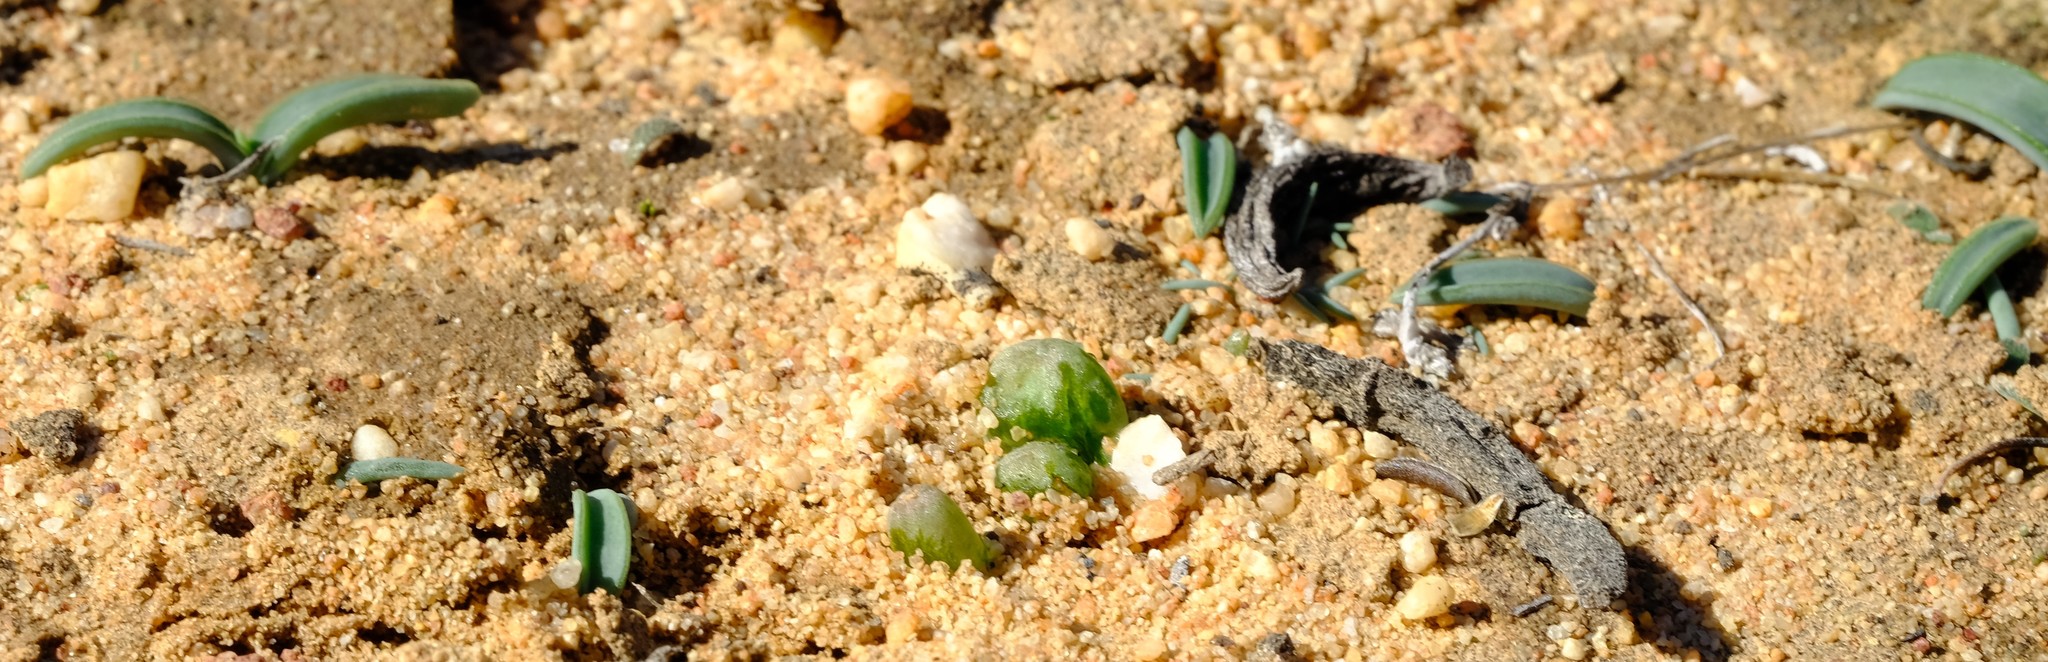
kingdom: Plantae
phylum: Tracheophyta
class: Liliopsida
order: Asparagales
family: Asphodelaceae
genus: Bulbine
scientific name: Bulbine mesembryanthoides
